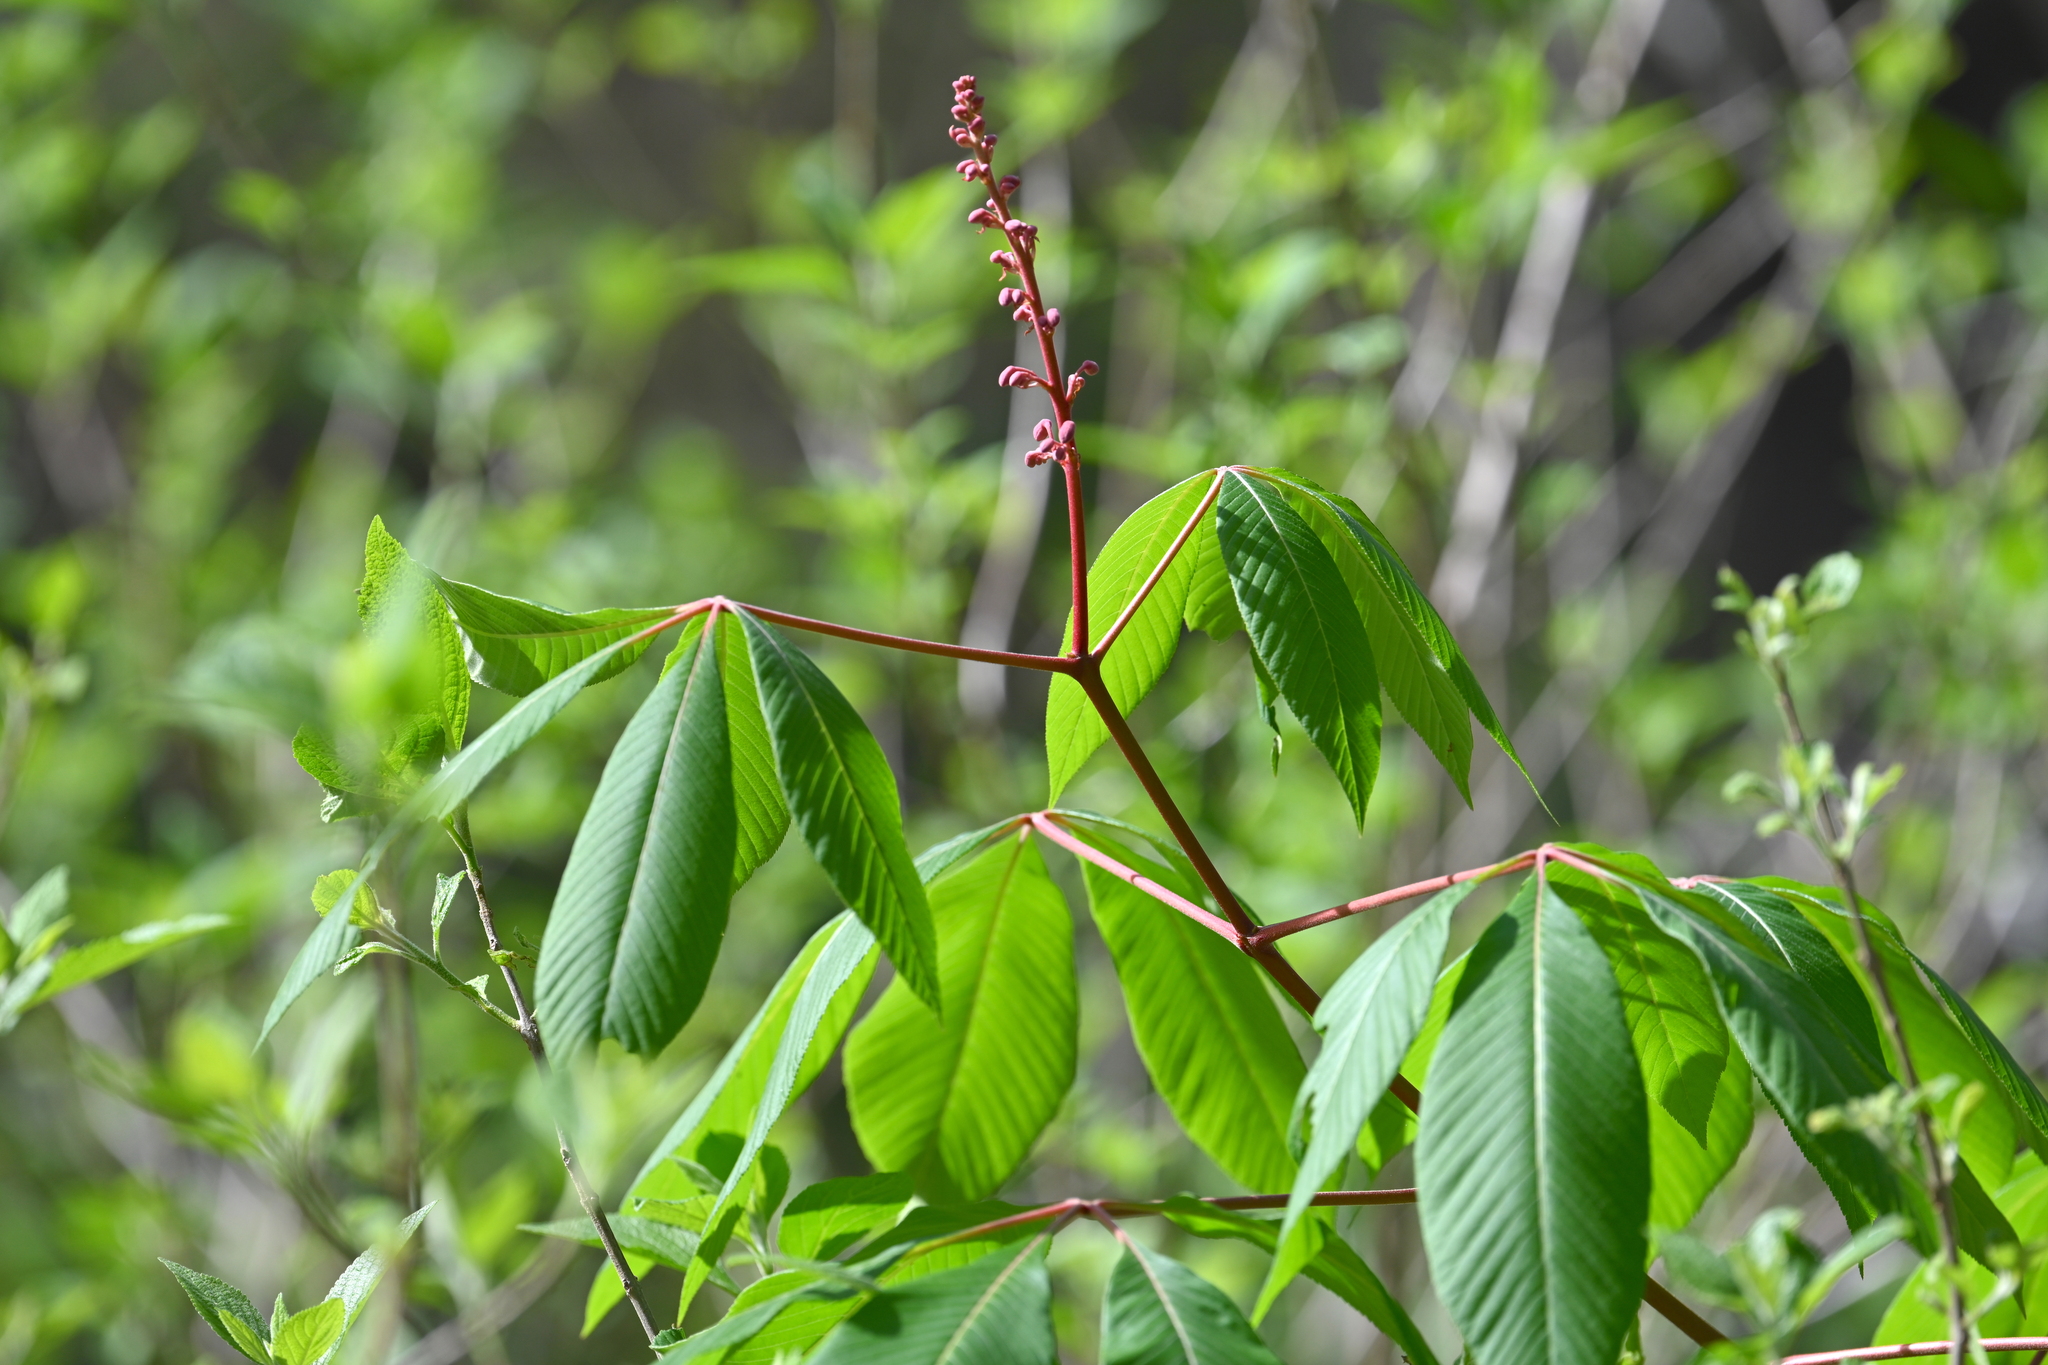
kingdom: Plantae
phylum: Tracheophyta
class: Magnoliopsida
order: Sapindales
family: Sapindaceae
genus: Aesculus
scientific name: Aesculus pavia
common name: Red buckeye
